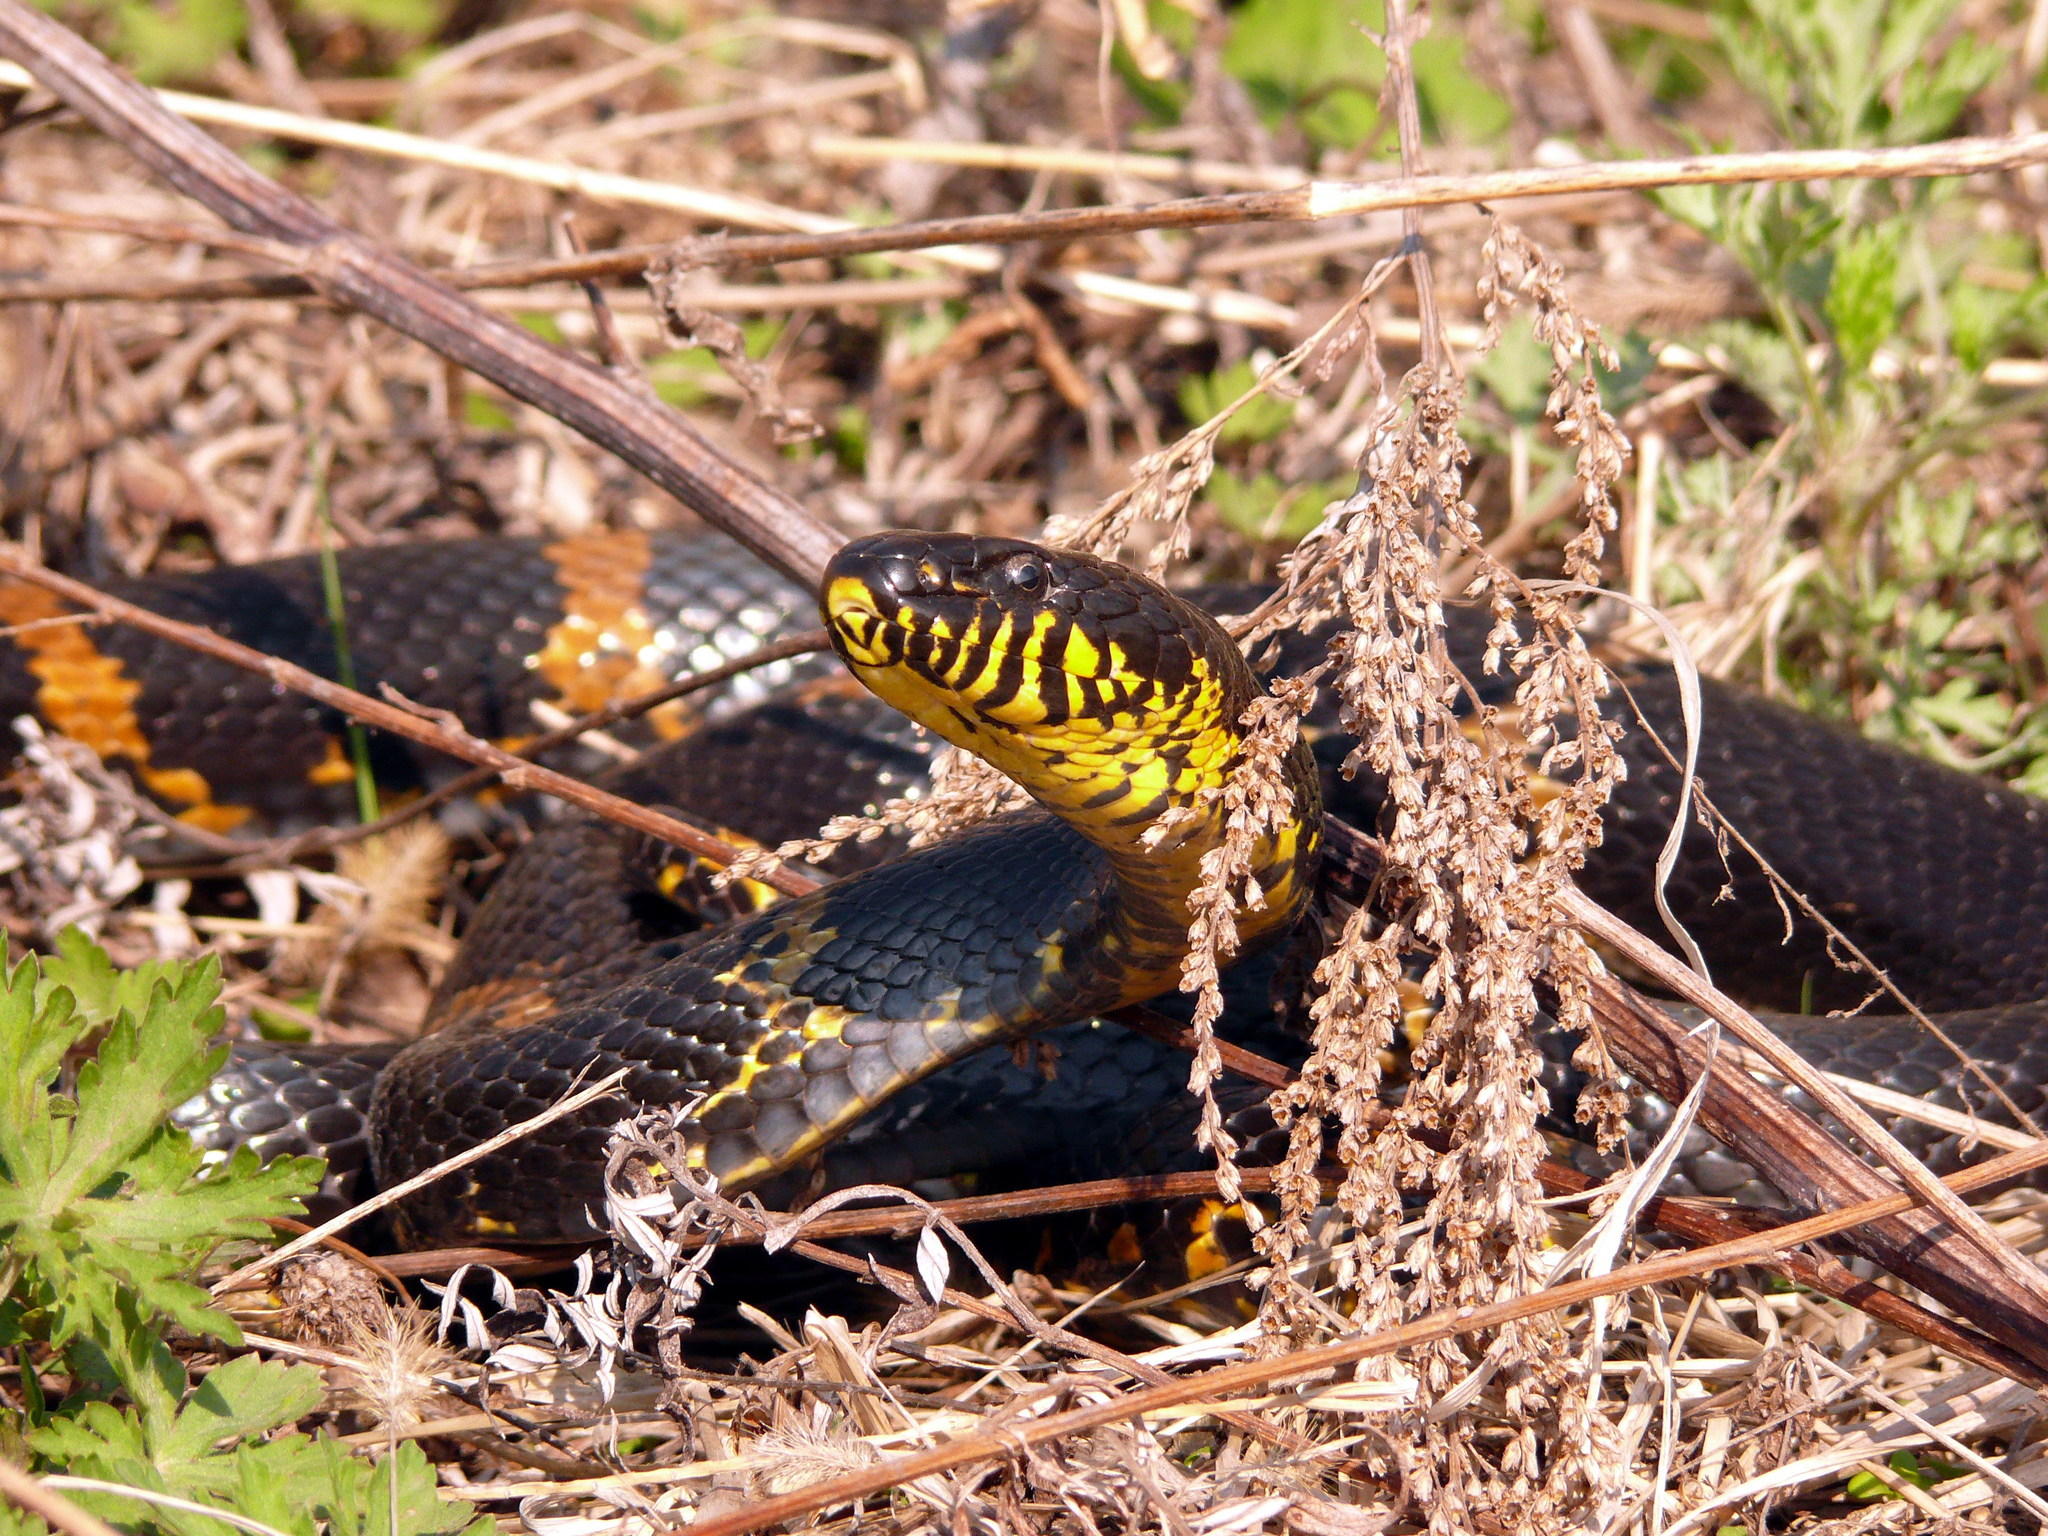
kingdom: Animalia
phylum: Chordata
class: Squamata
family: Colubridae
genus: Elaphe
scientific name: Elaphe schrenckii
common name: Amur rat snake
